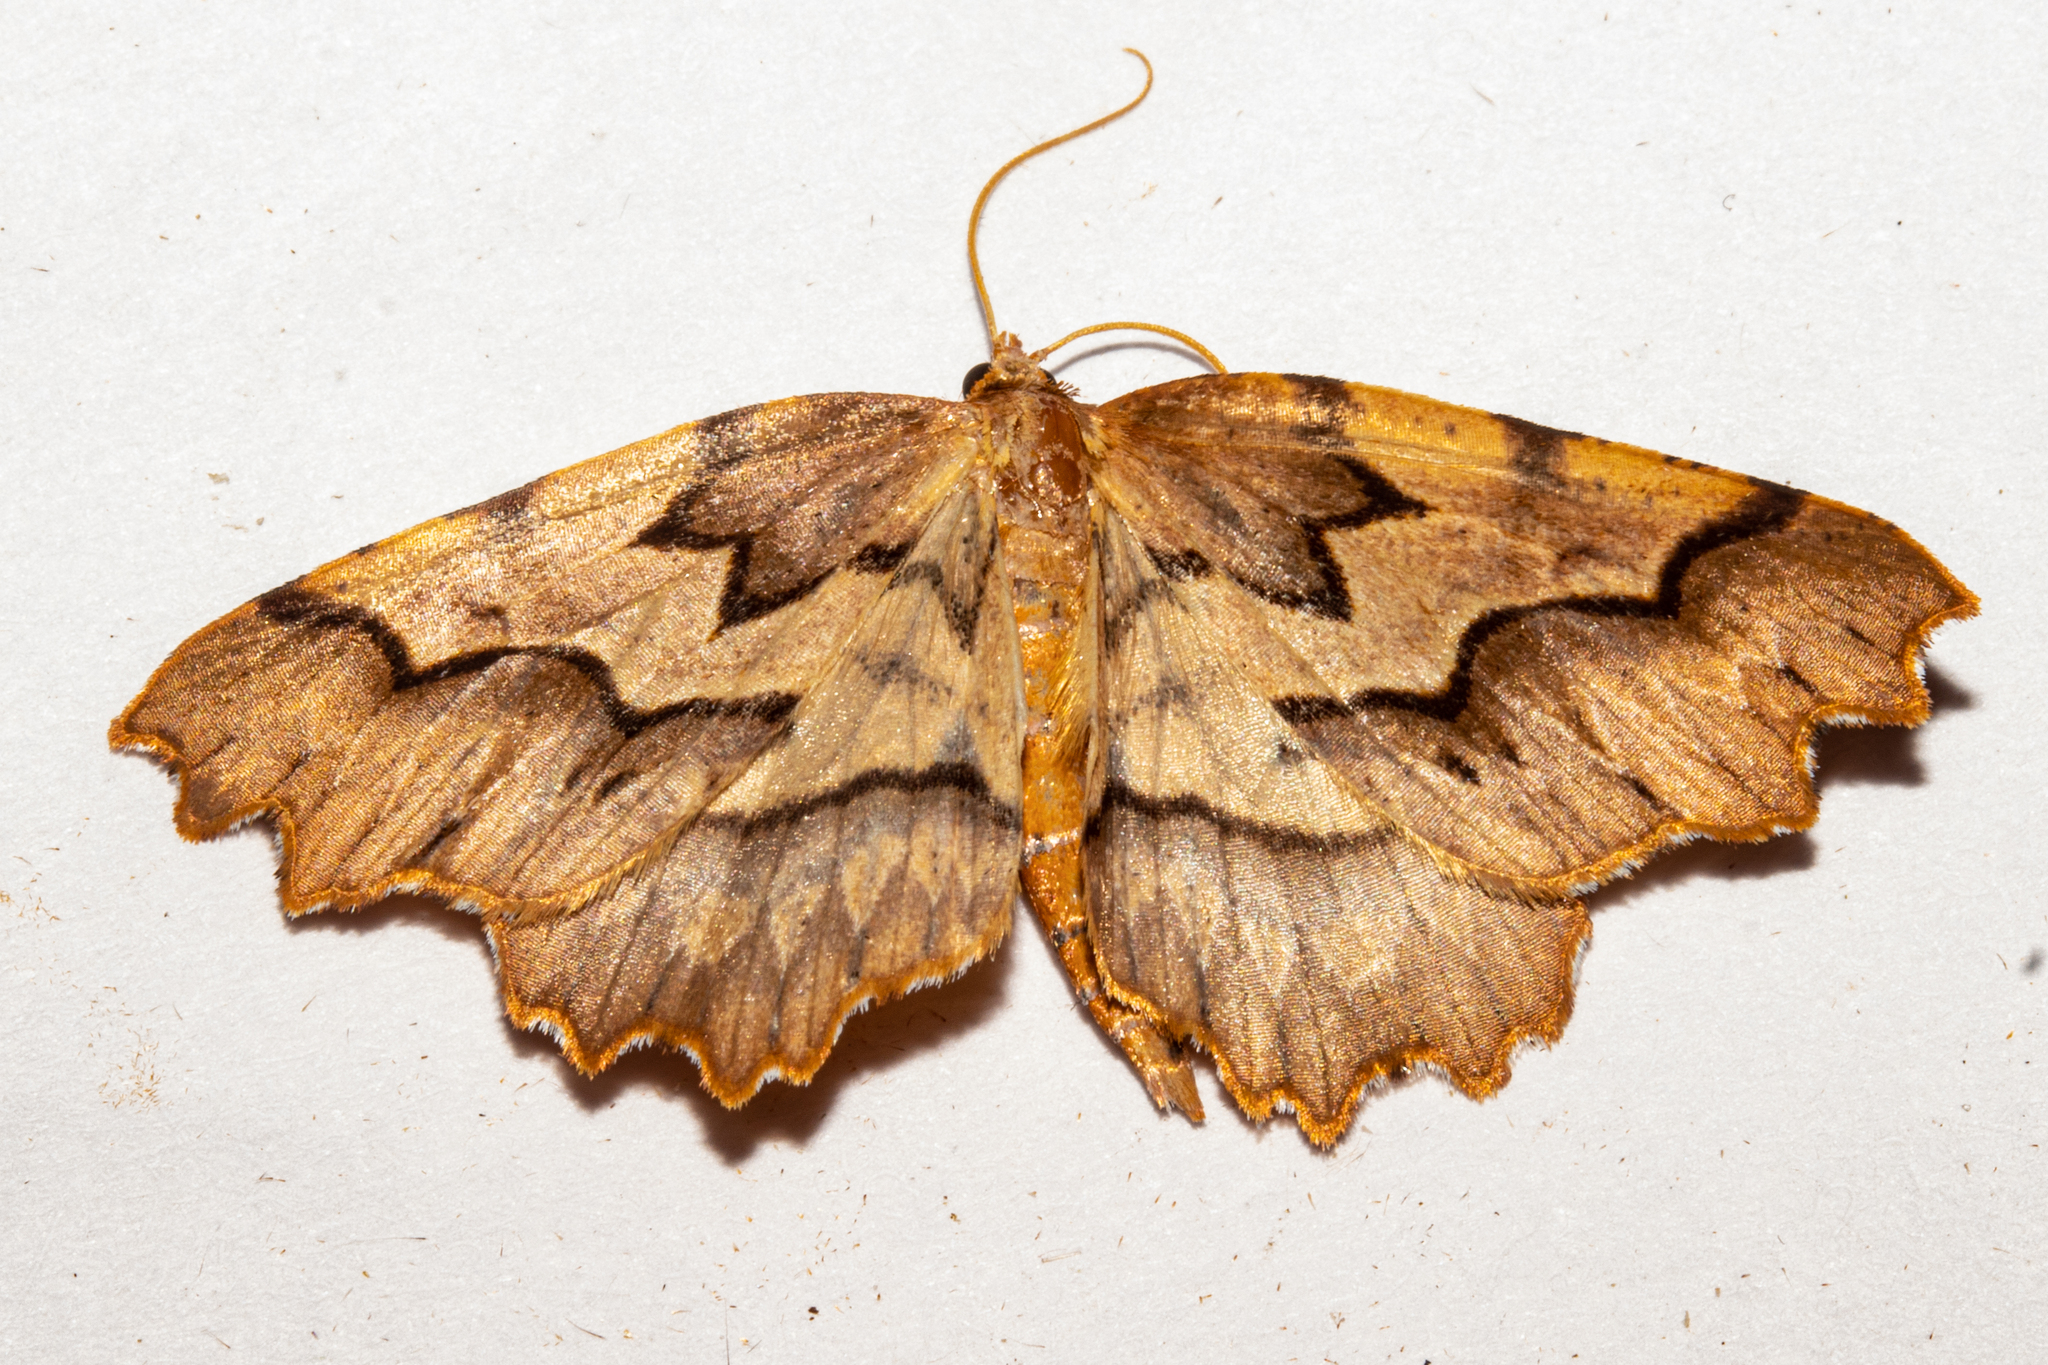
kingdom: Animalia
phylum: Arthropoda
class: Insecta
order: Lepidoptera
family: Geometridae
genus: Ischalis
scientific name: Ischalis fortinata
